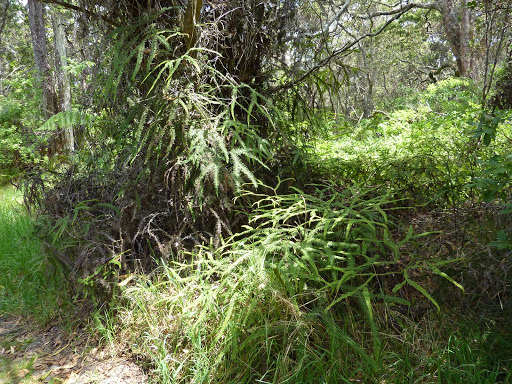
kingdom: Plantae
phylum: Tracheophyta
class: Polypodiopsida
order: Gleicheniales
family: Gleicheniaceae
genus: Sticherus
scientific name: Sticherus owhyhensis
